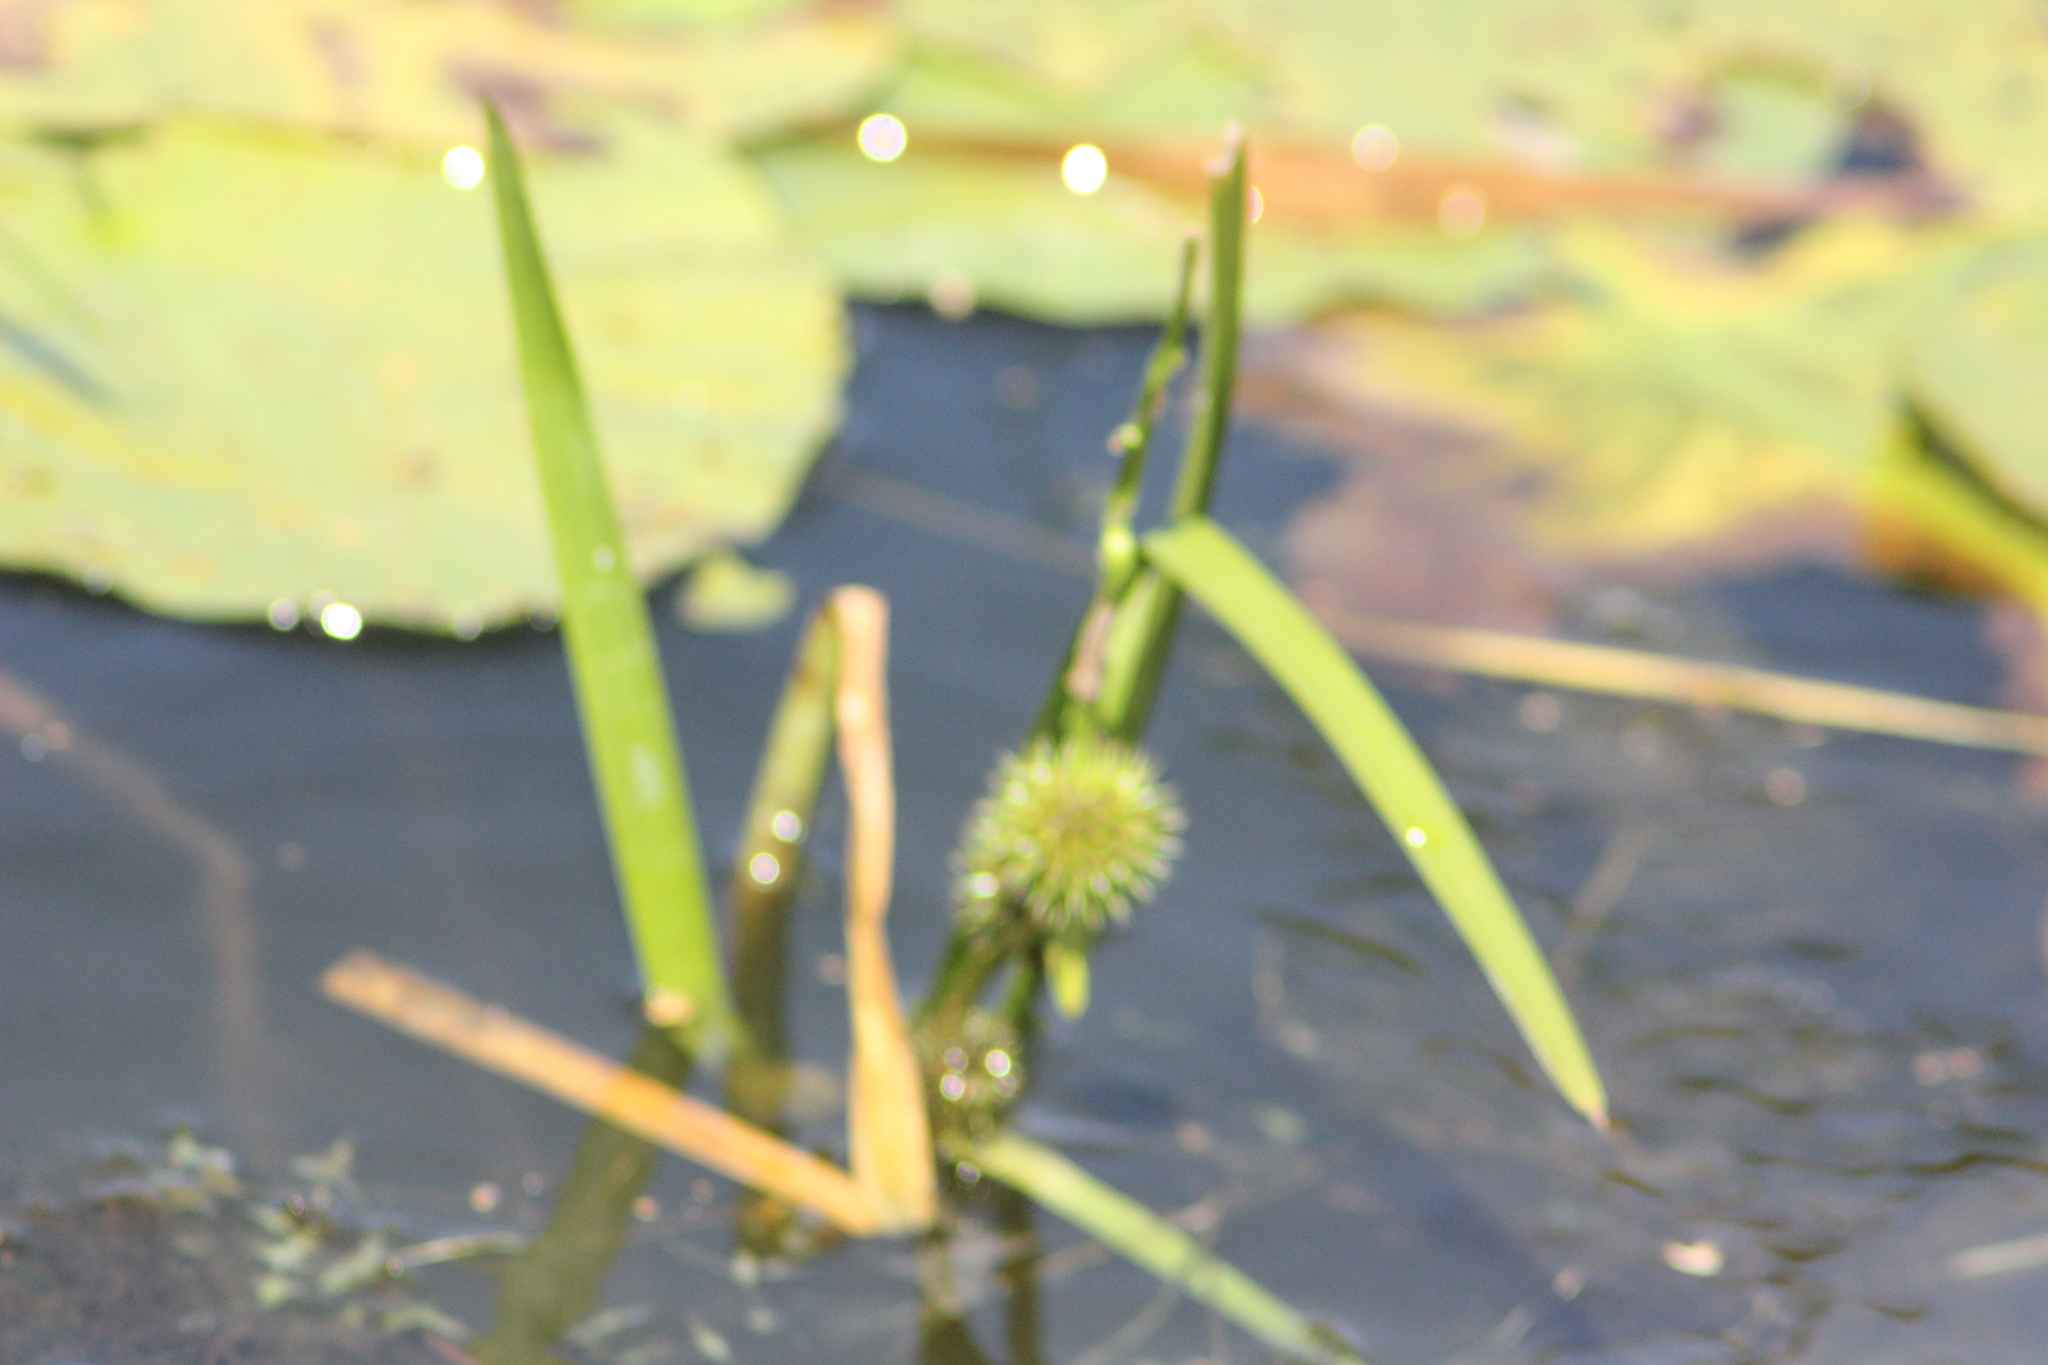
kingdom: Plantae
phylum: Tracheophyta
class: Liliopsida
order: Poales
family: Typhaceae
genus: Sparganium
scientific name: Sparganium emersum
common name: Unbranched bur-reed
